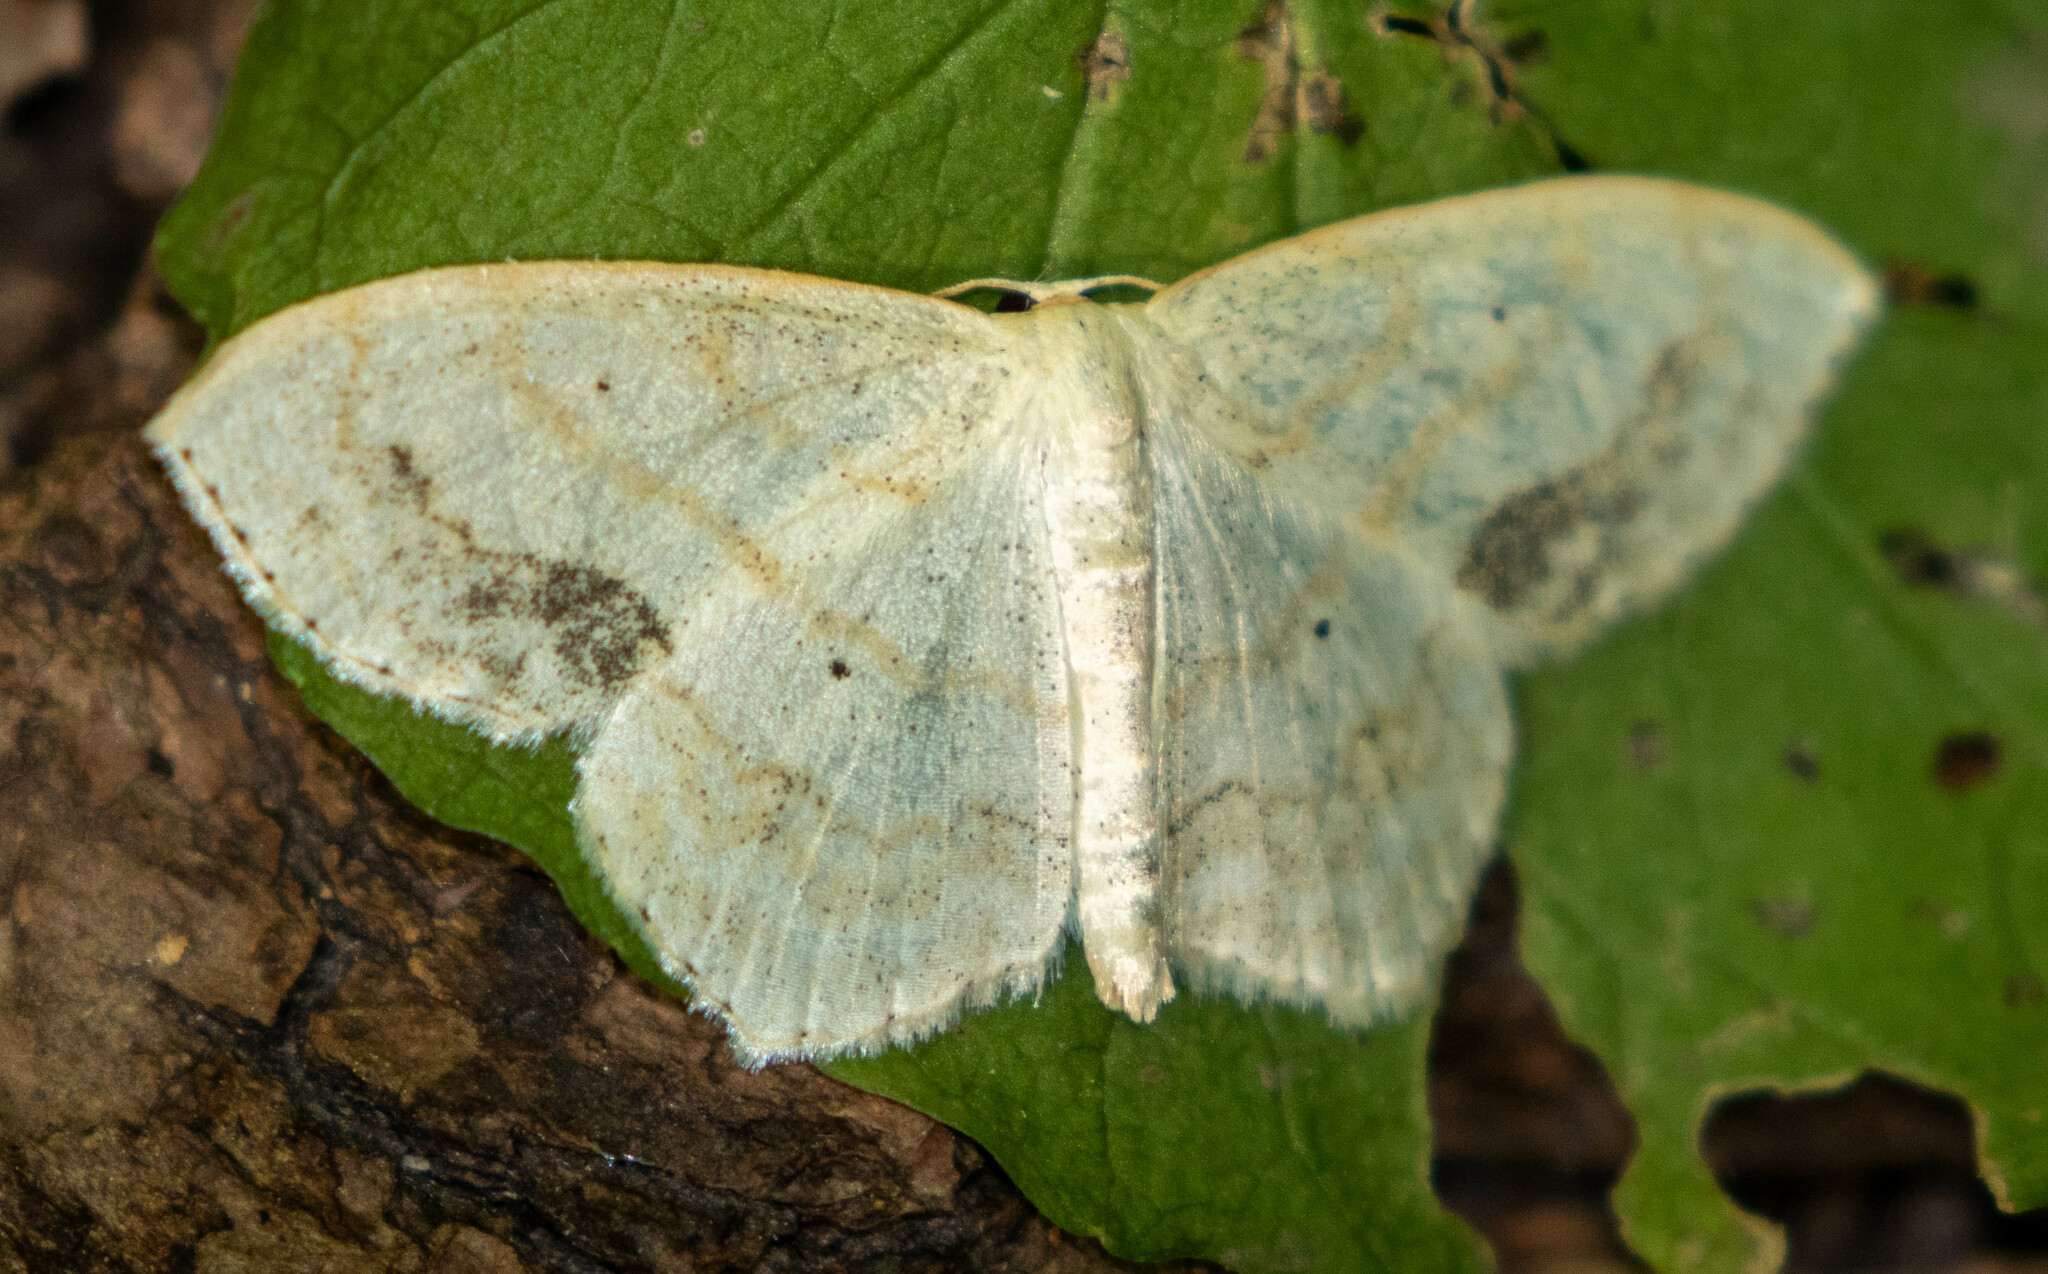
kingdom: Animalia
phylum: Arthropoda
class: Insecta
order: Lepidoptera
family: Geometridae
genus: Scopula
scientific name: Scopula limboundata
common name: Large lace border
